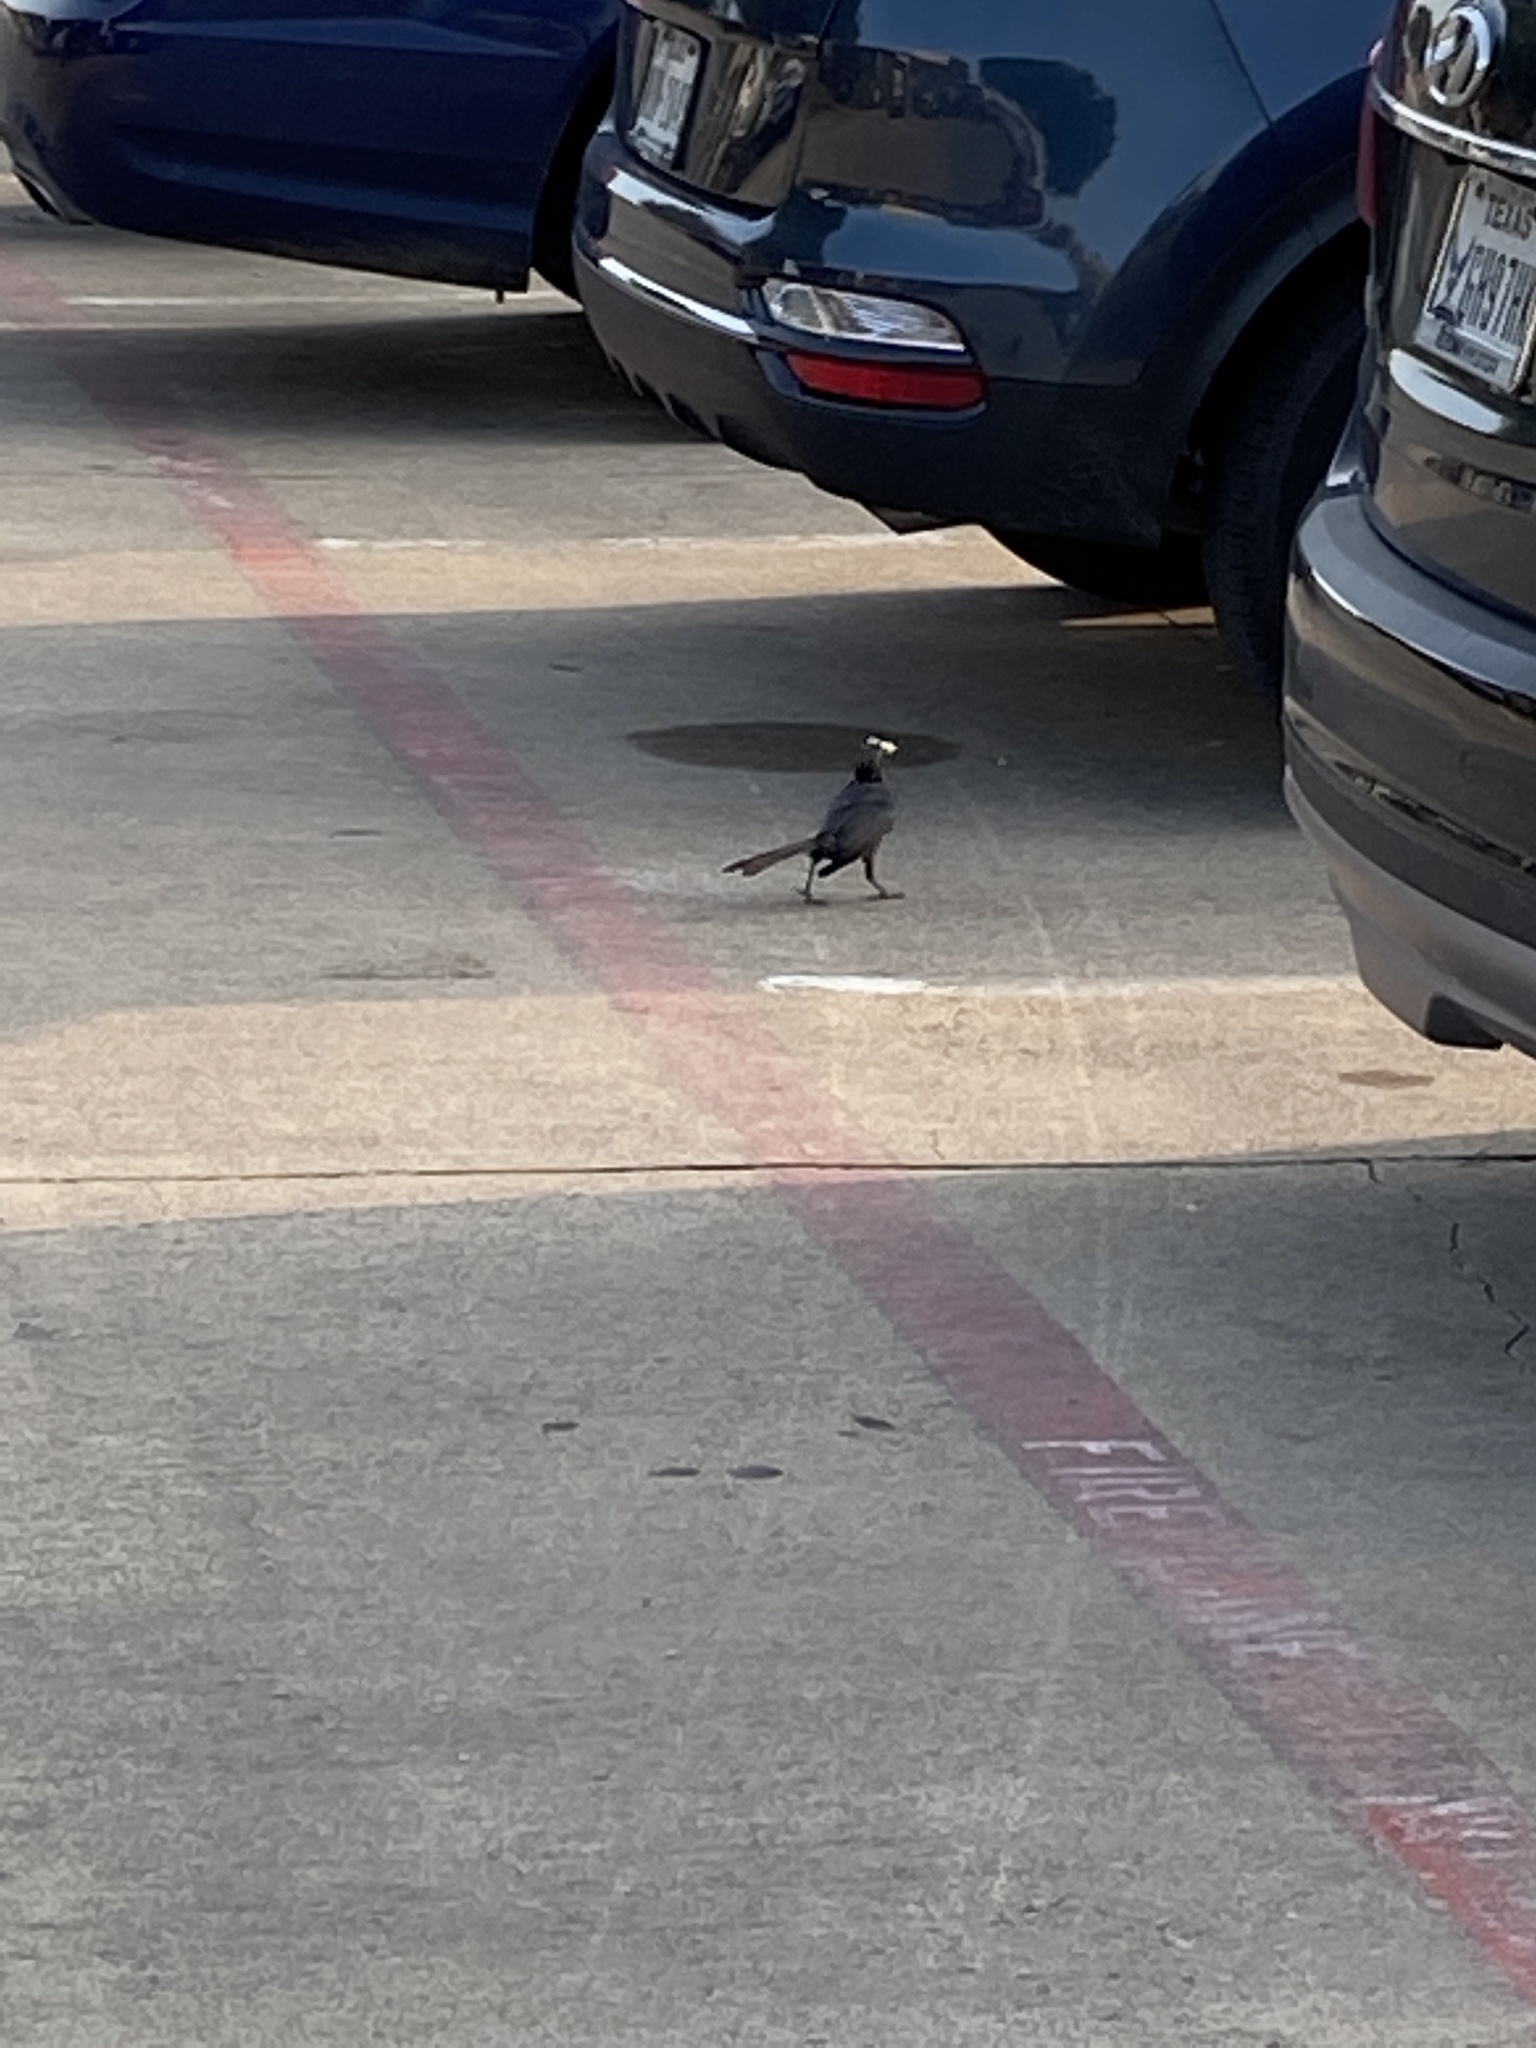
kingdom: Animalia
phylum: Chordata
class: Aves
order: Passeriformes
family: Icteridae
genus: Quiscalus
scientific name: Quiscalus mexicanus
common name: Great-tailed grackle
